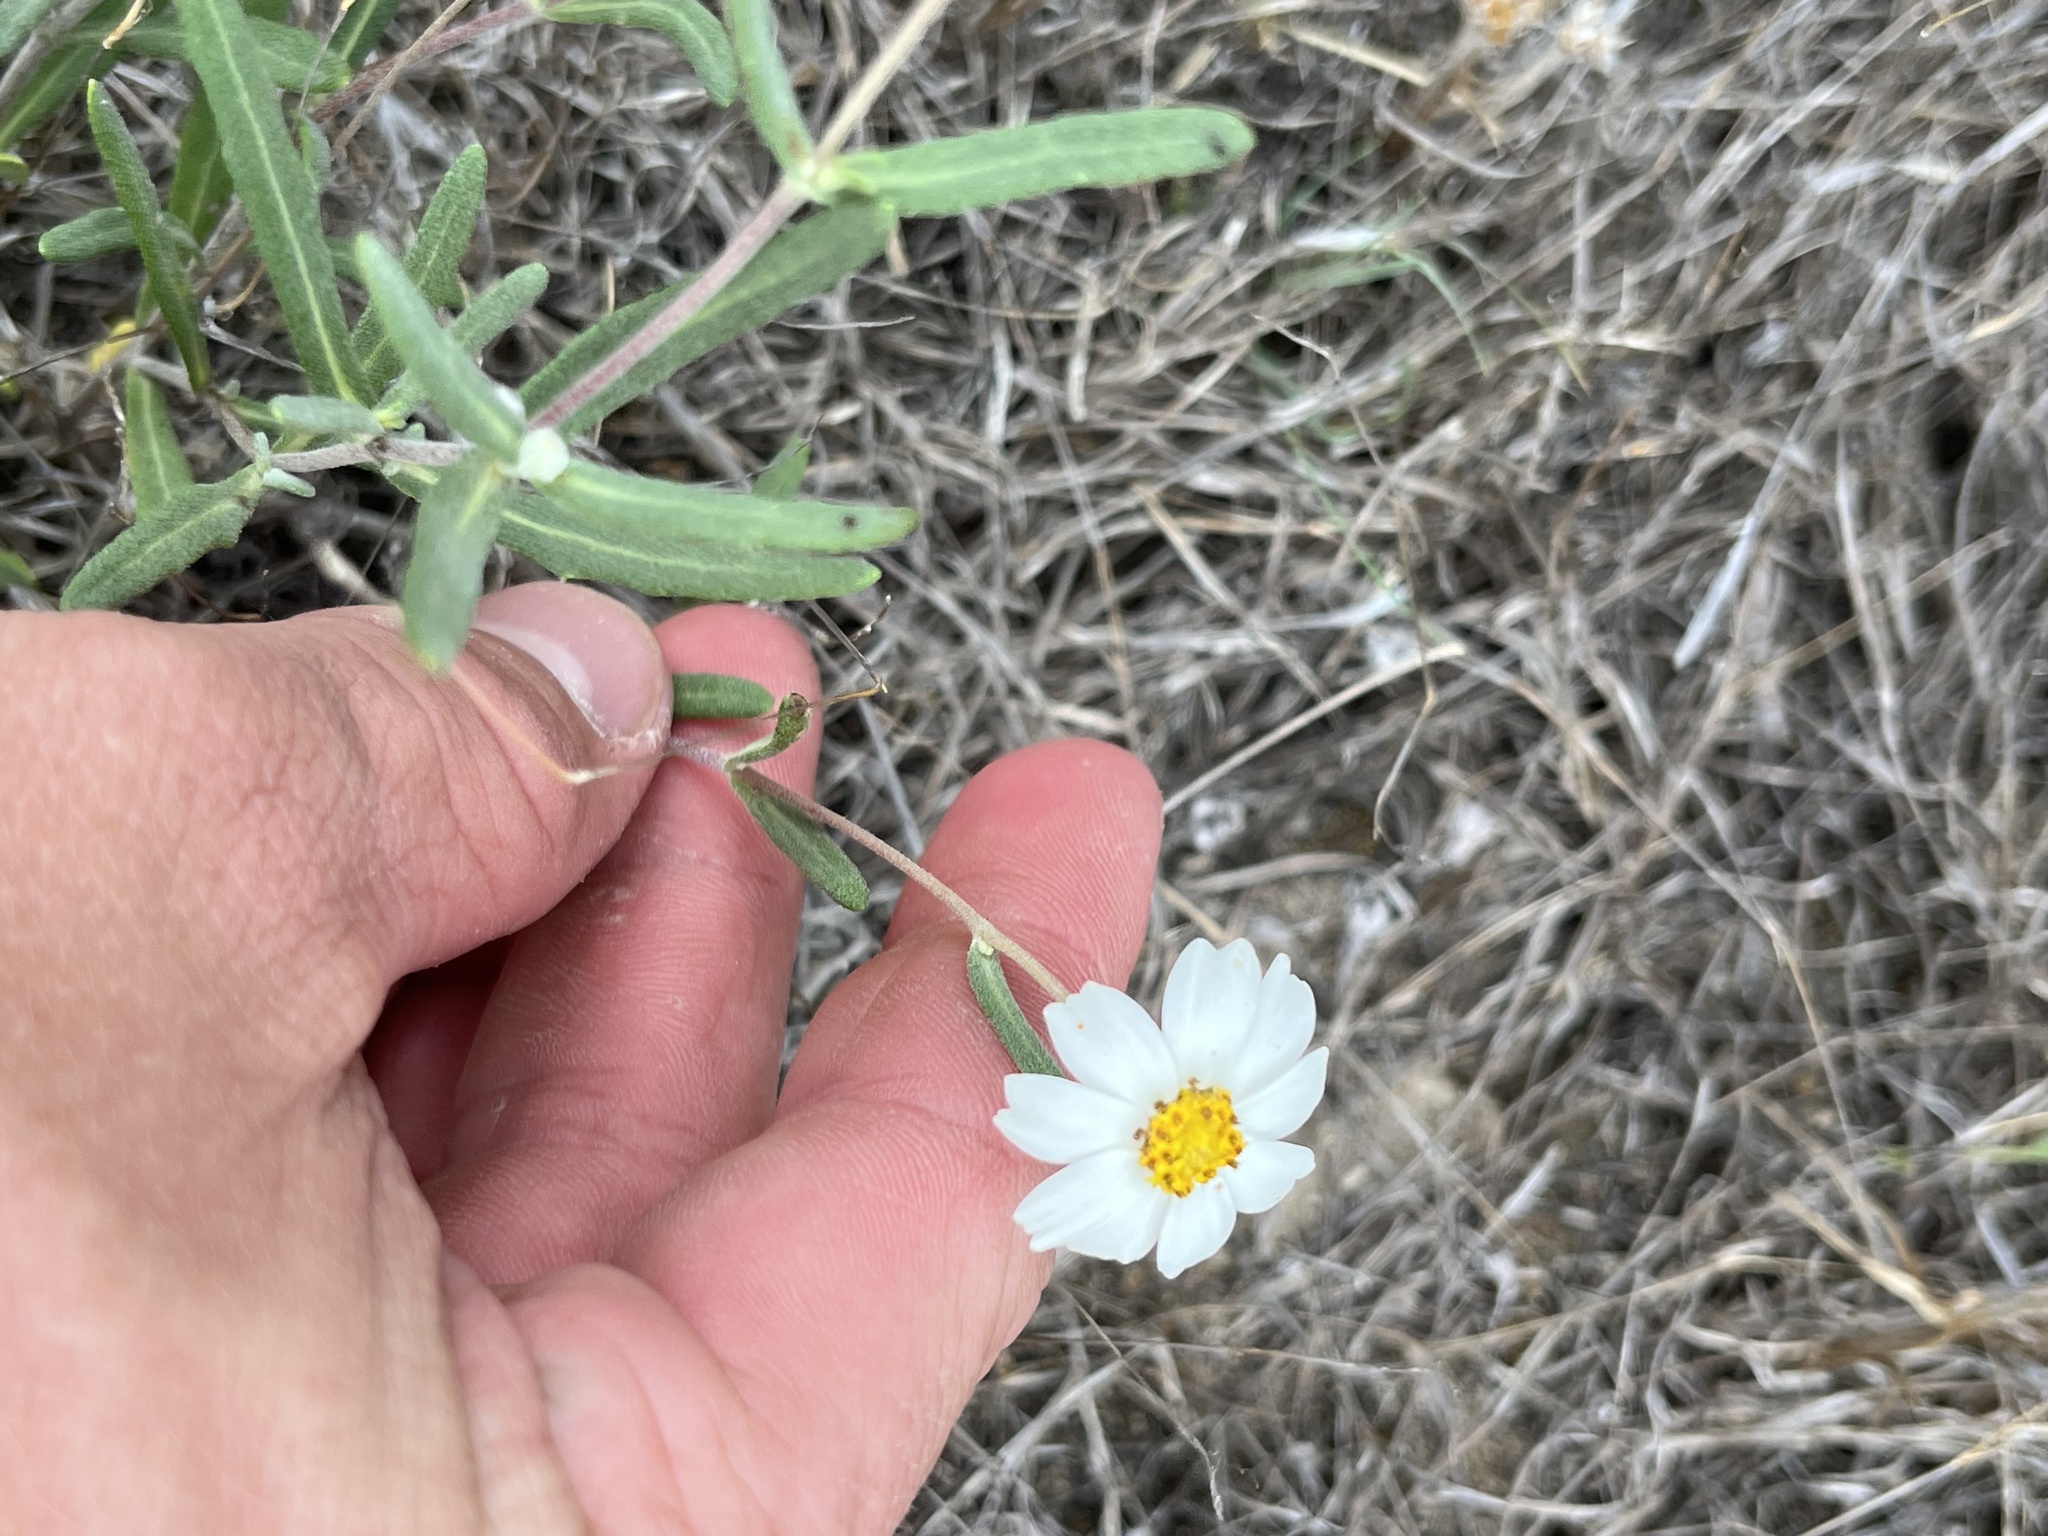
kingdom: Plantae
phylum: Tracheophyta
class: Magnoliopsida
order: Asterales
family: Asteraceae
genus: Melampodium
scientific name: Melampodium leucanthum
